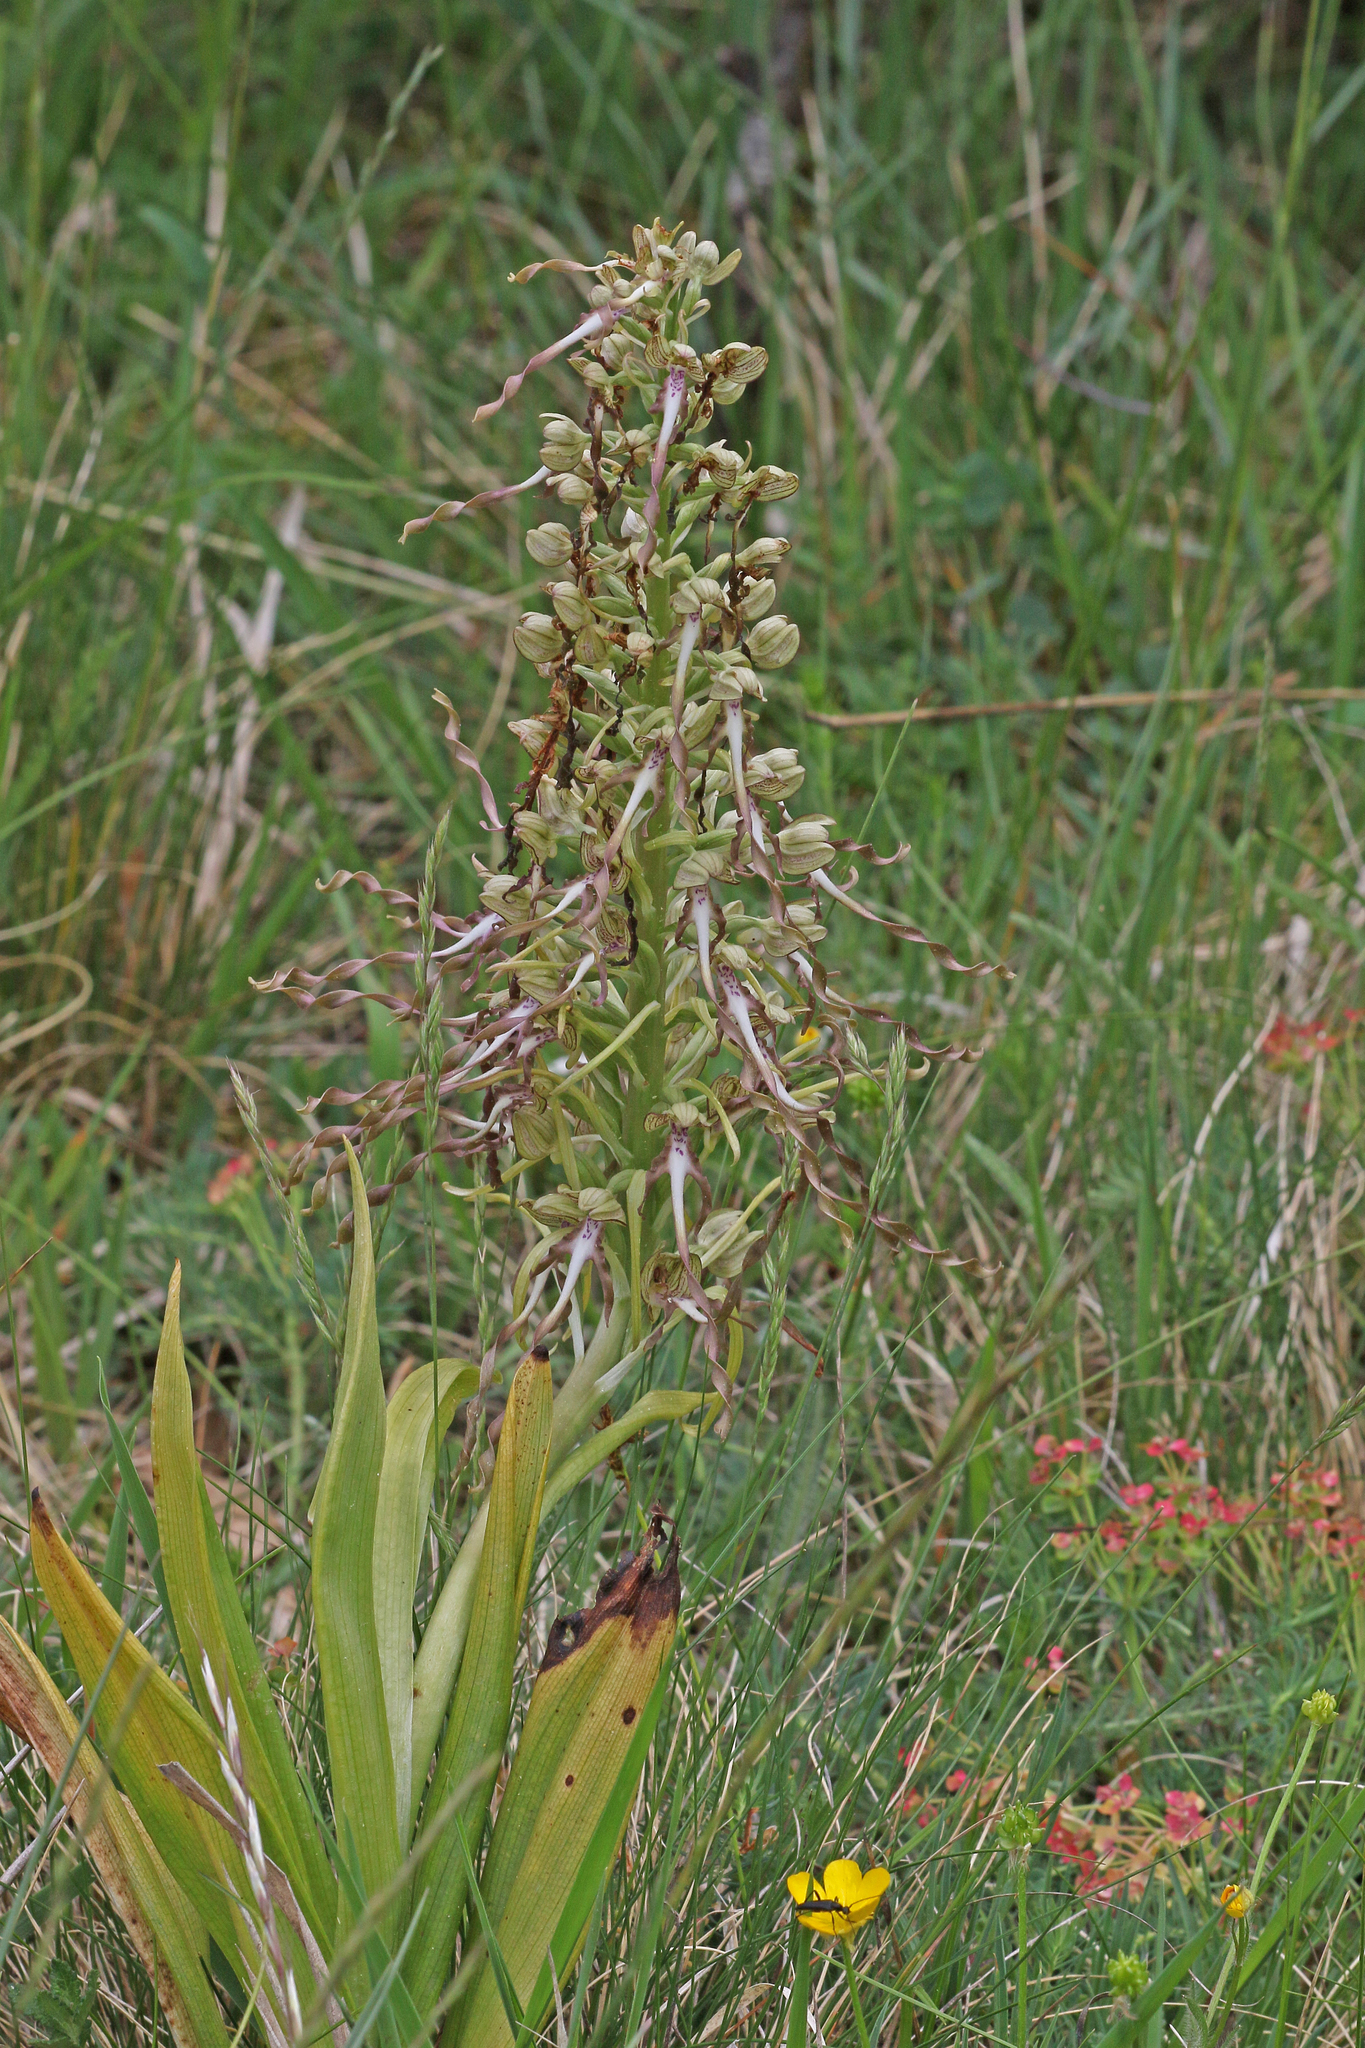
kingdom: Plantae
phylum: Tracheophyta
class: Liliopsida
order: Asparagales
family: Orchidaceae
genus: Himantoglossum
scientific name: Himantoglossum hircinum
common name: Lizard orchid
